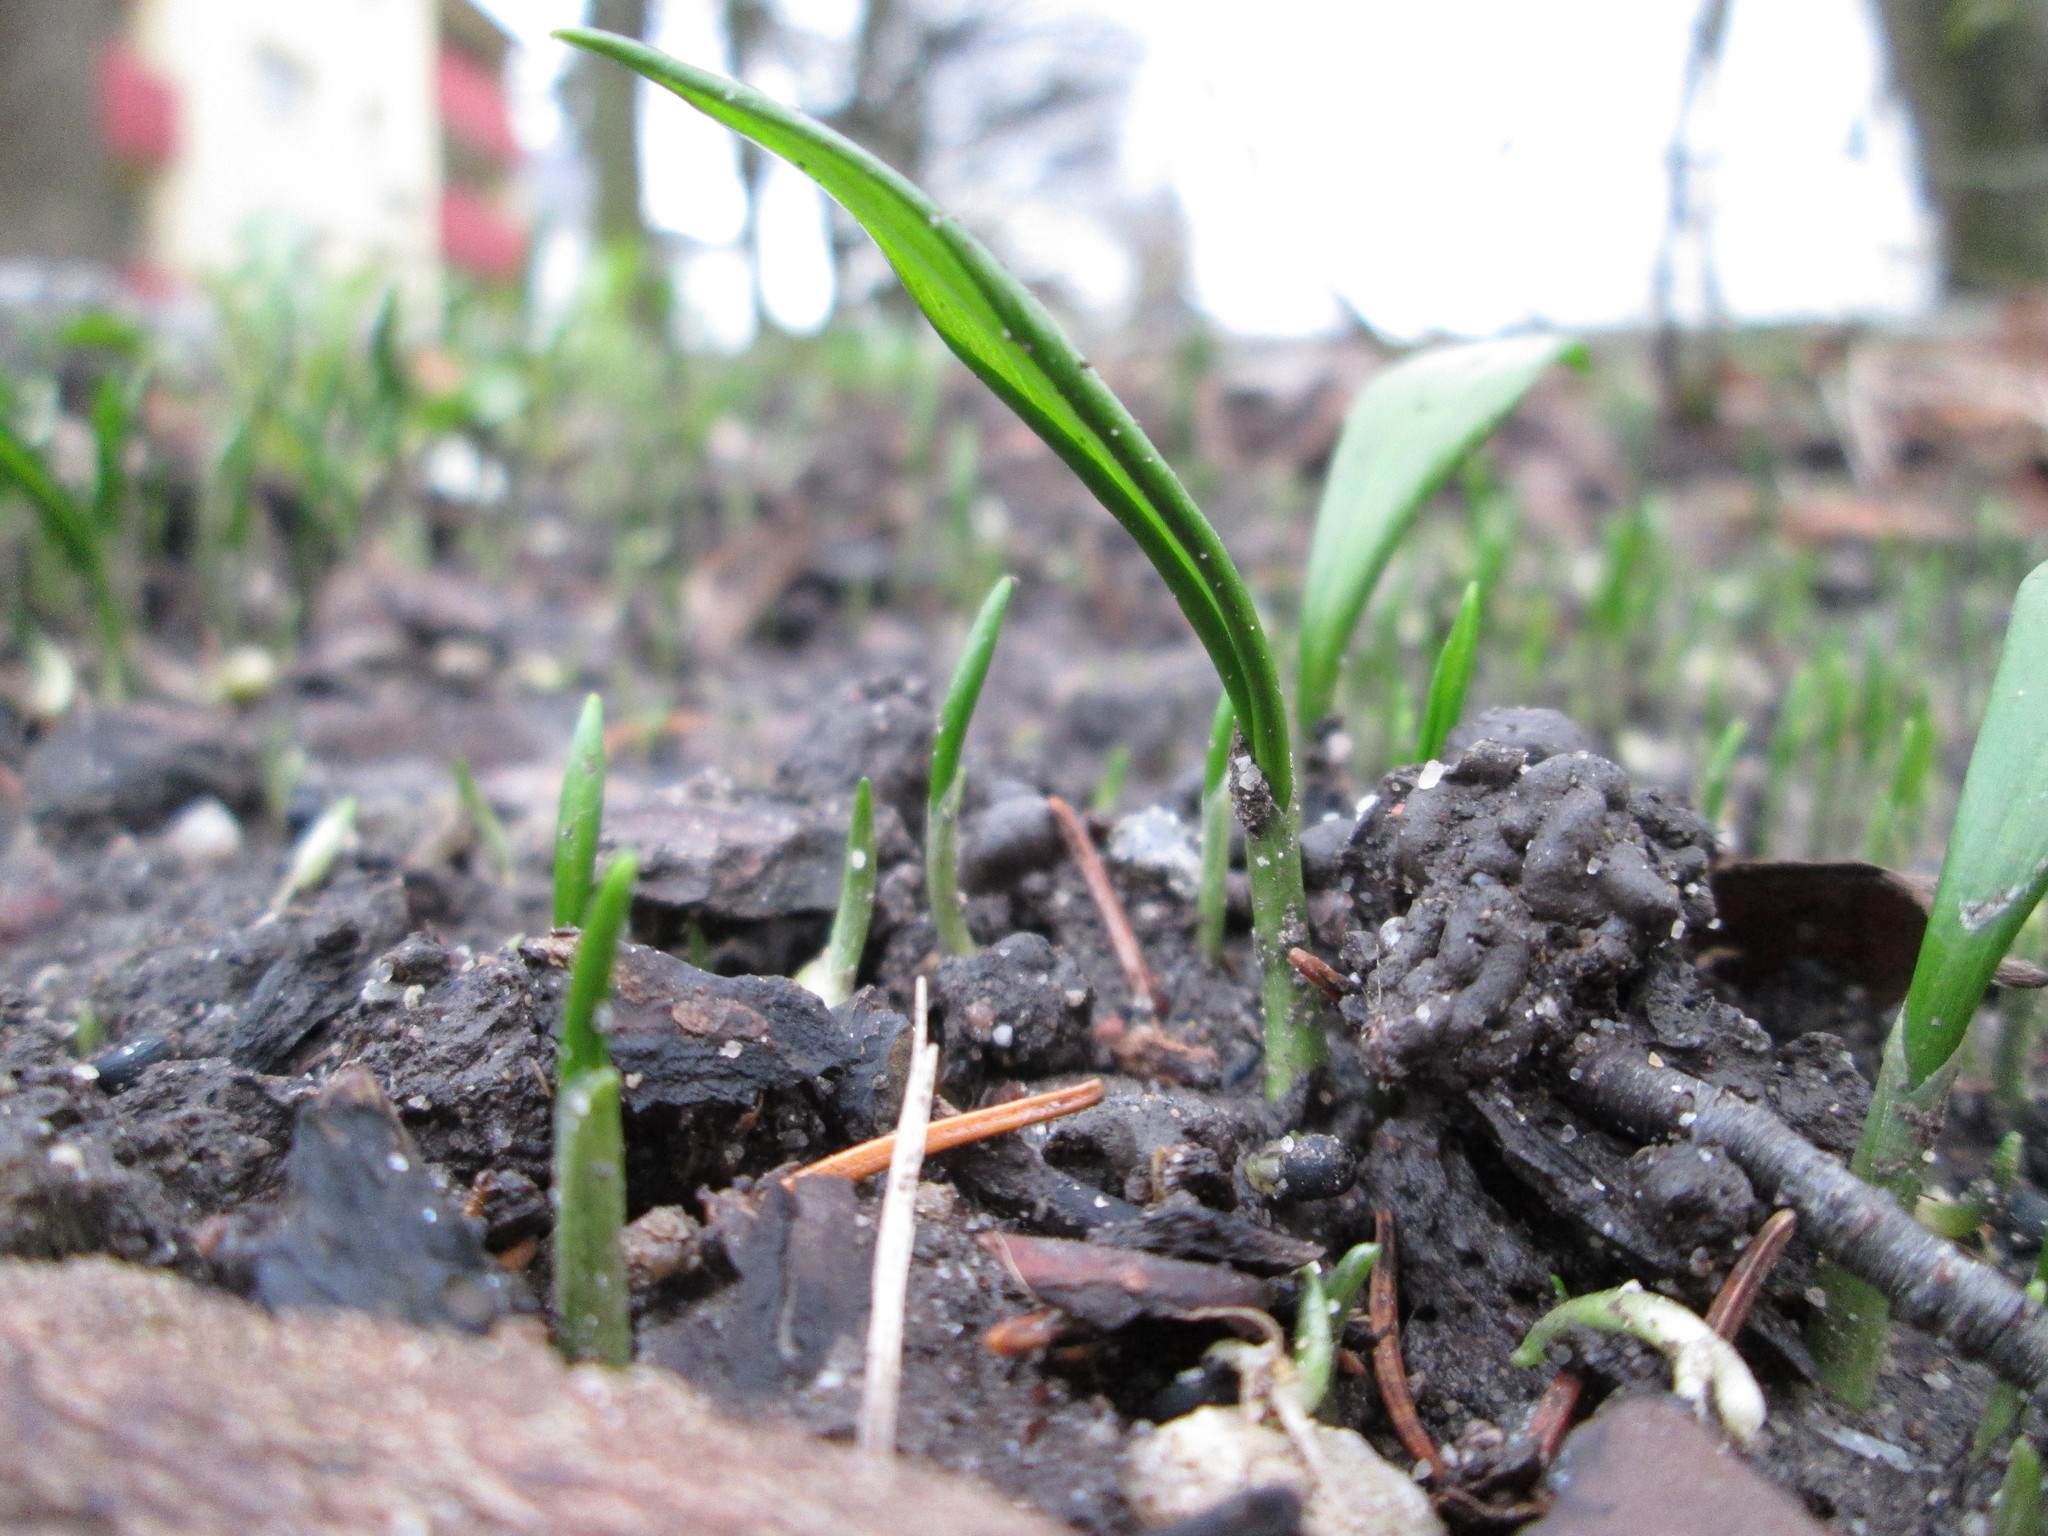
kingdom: Plantae
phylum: Tracheophyta
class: Liliopsida
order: Asparagales
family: Amaryllidaceae
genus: Allium
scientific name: Allium ursinum
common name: Ramsons
